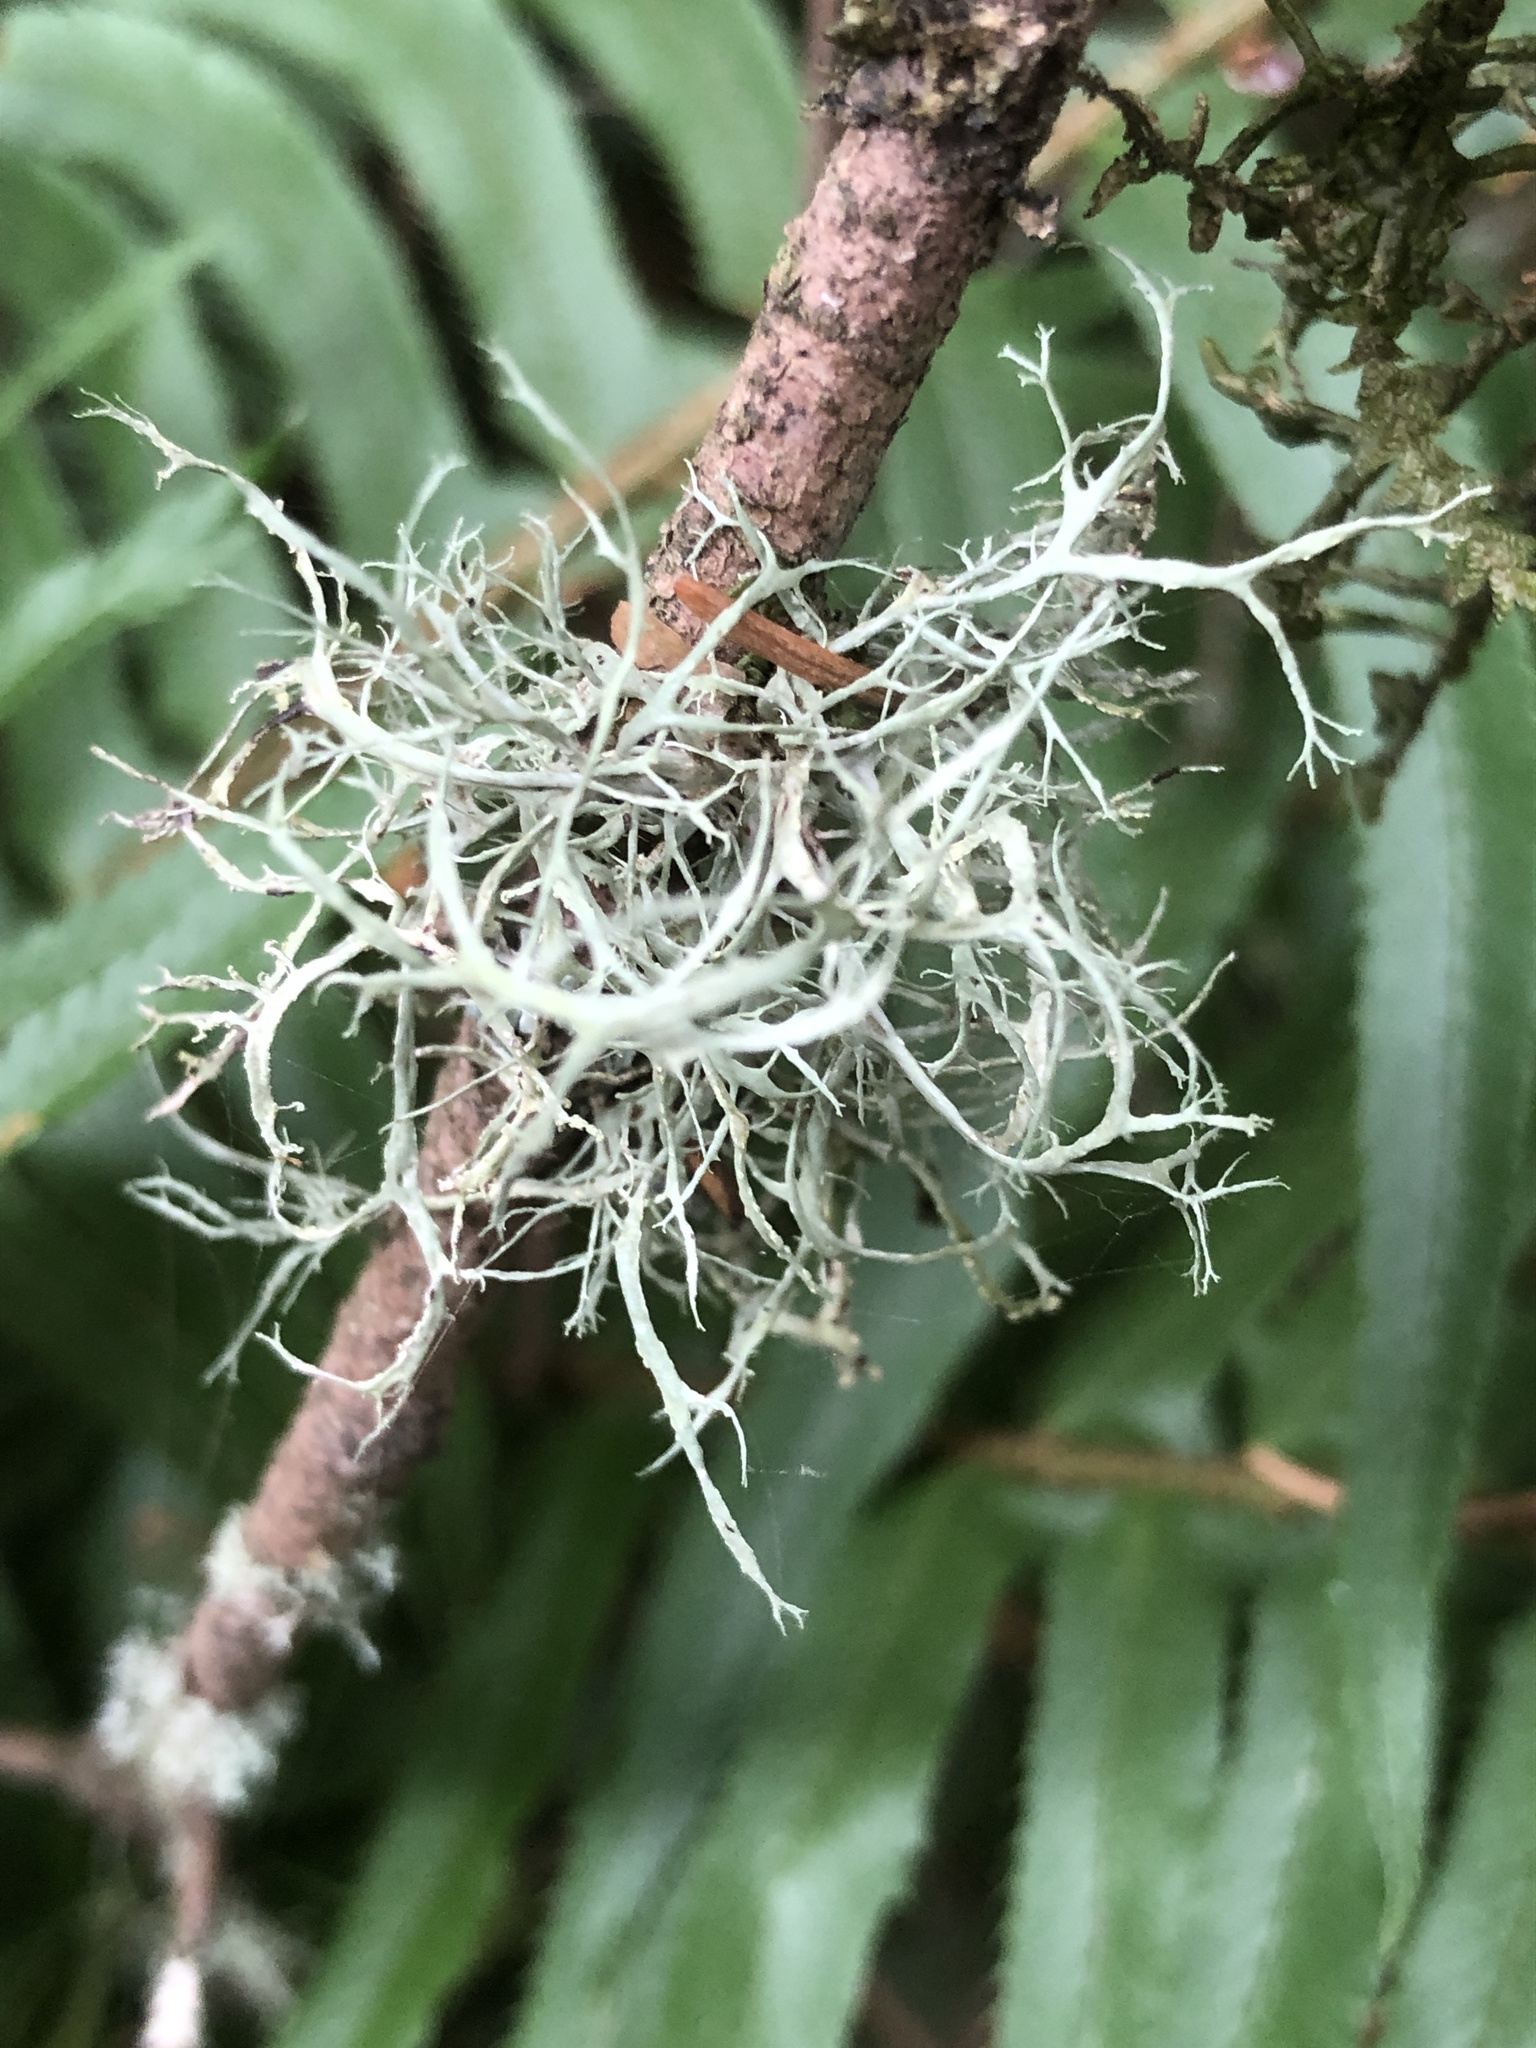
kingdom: Fungi
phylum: Ascomycota
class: Lecanoromycetes
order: Lecanorales
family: Ramalinaceae
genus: Ramalina
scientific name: Ramalina farinacea
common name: Farinose cartilage lichen
